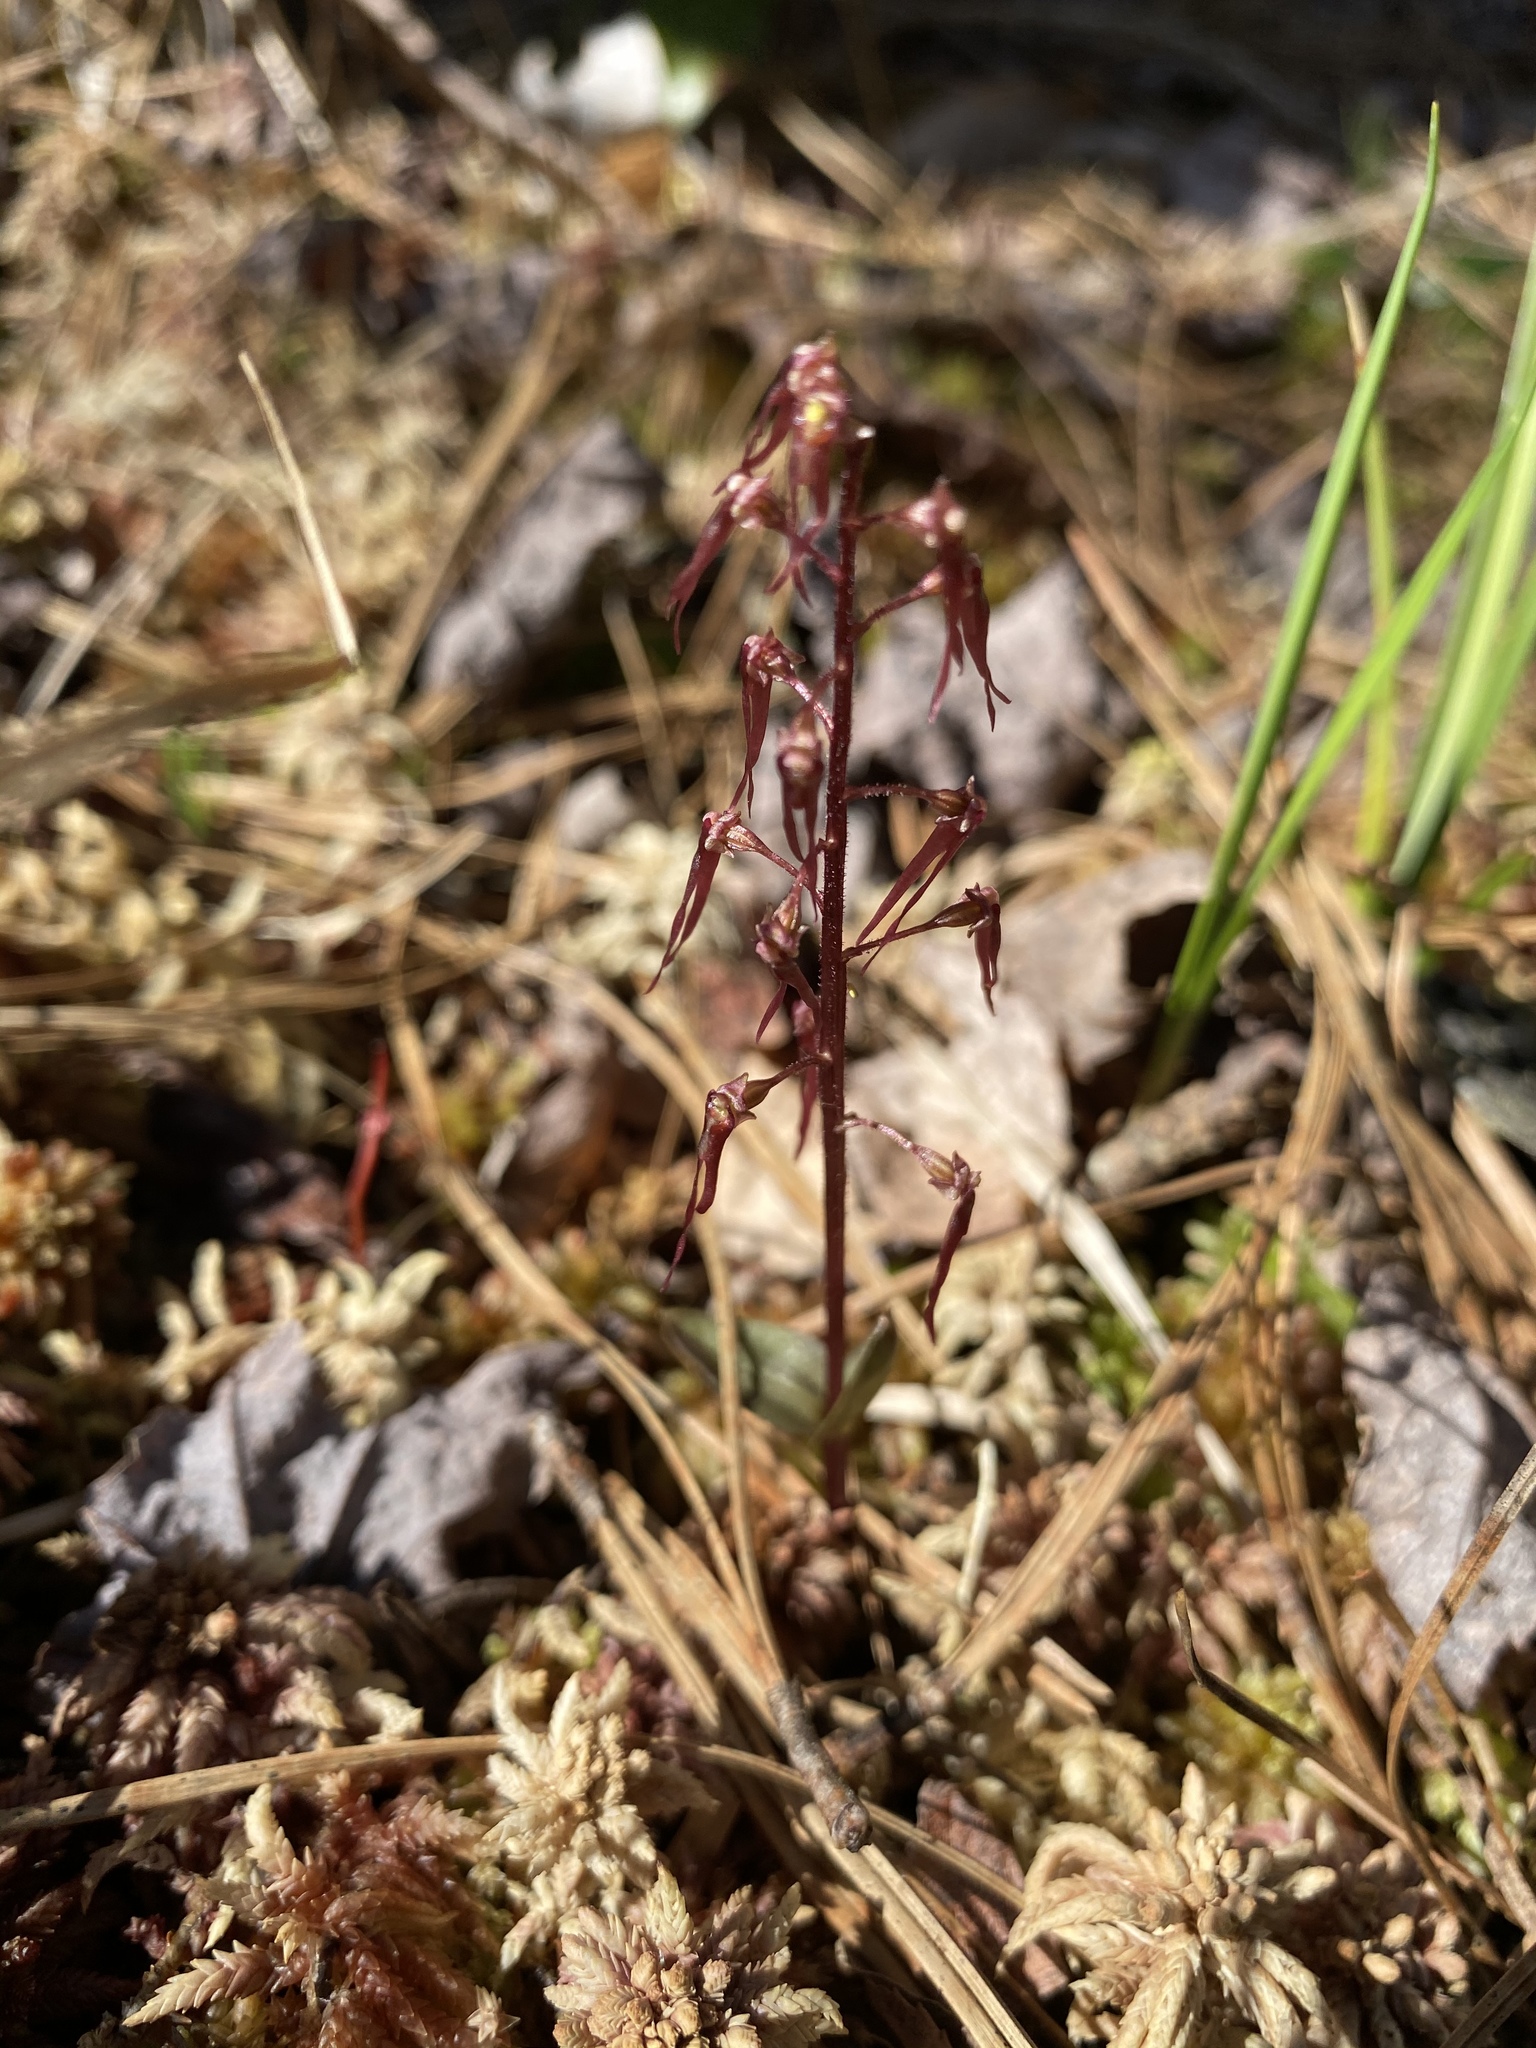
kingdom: Plantae
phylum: Tracheophyta
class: Liliopsida
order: Asparagales
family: Orchidaceae
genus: Neottia
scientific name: Neottia bifolia
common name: Southern twayblade
